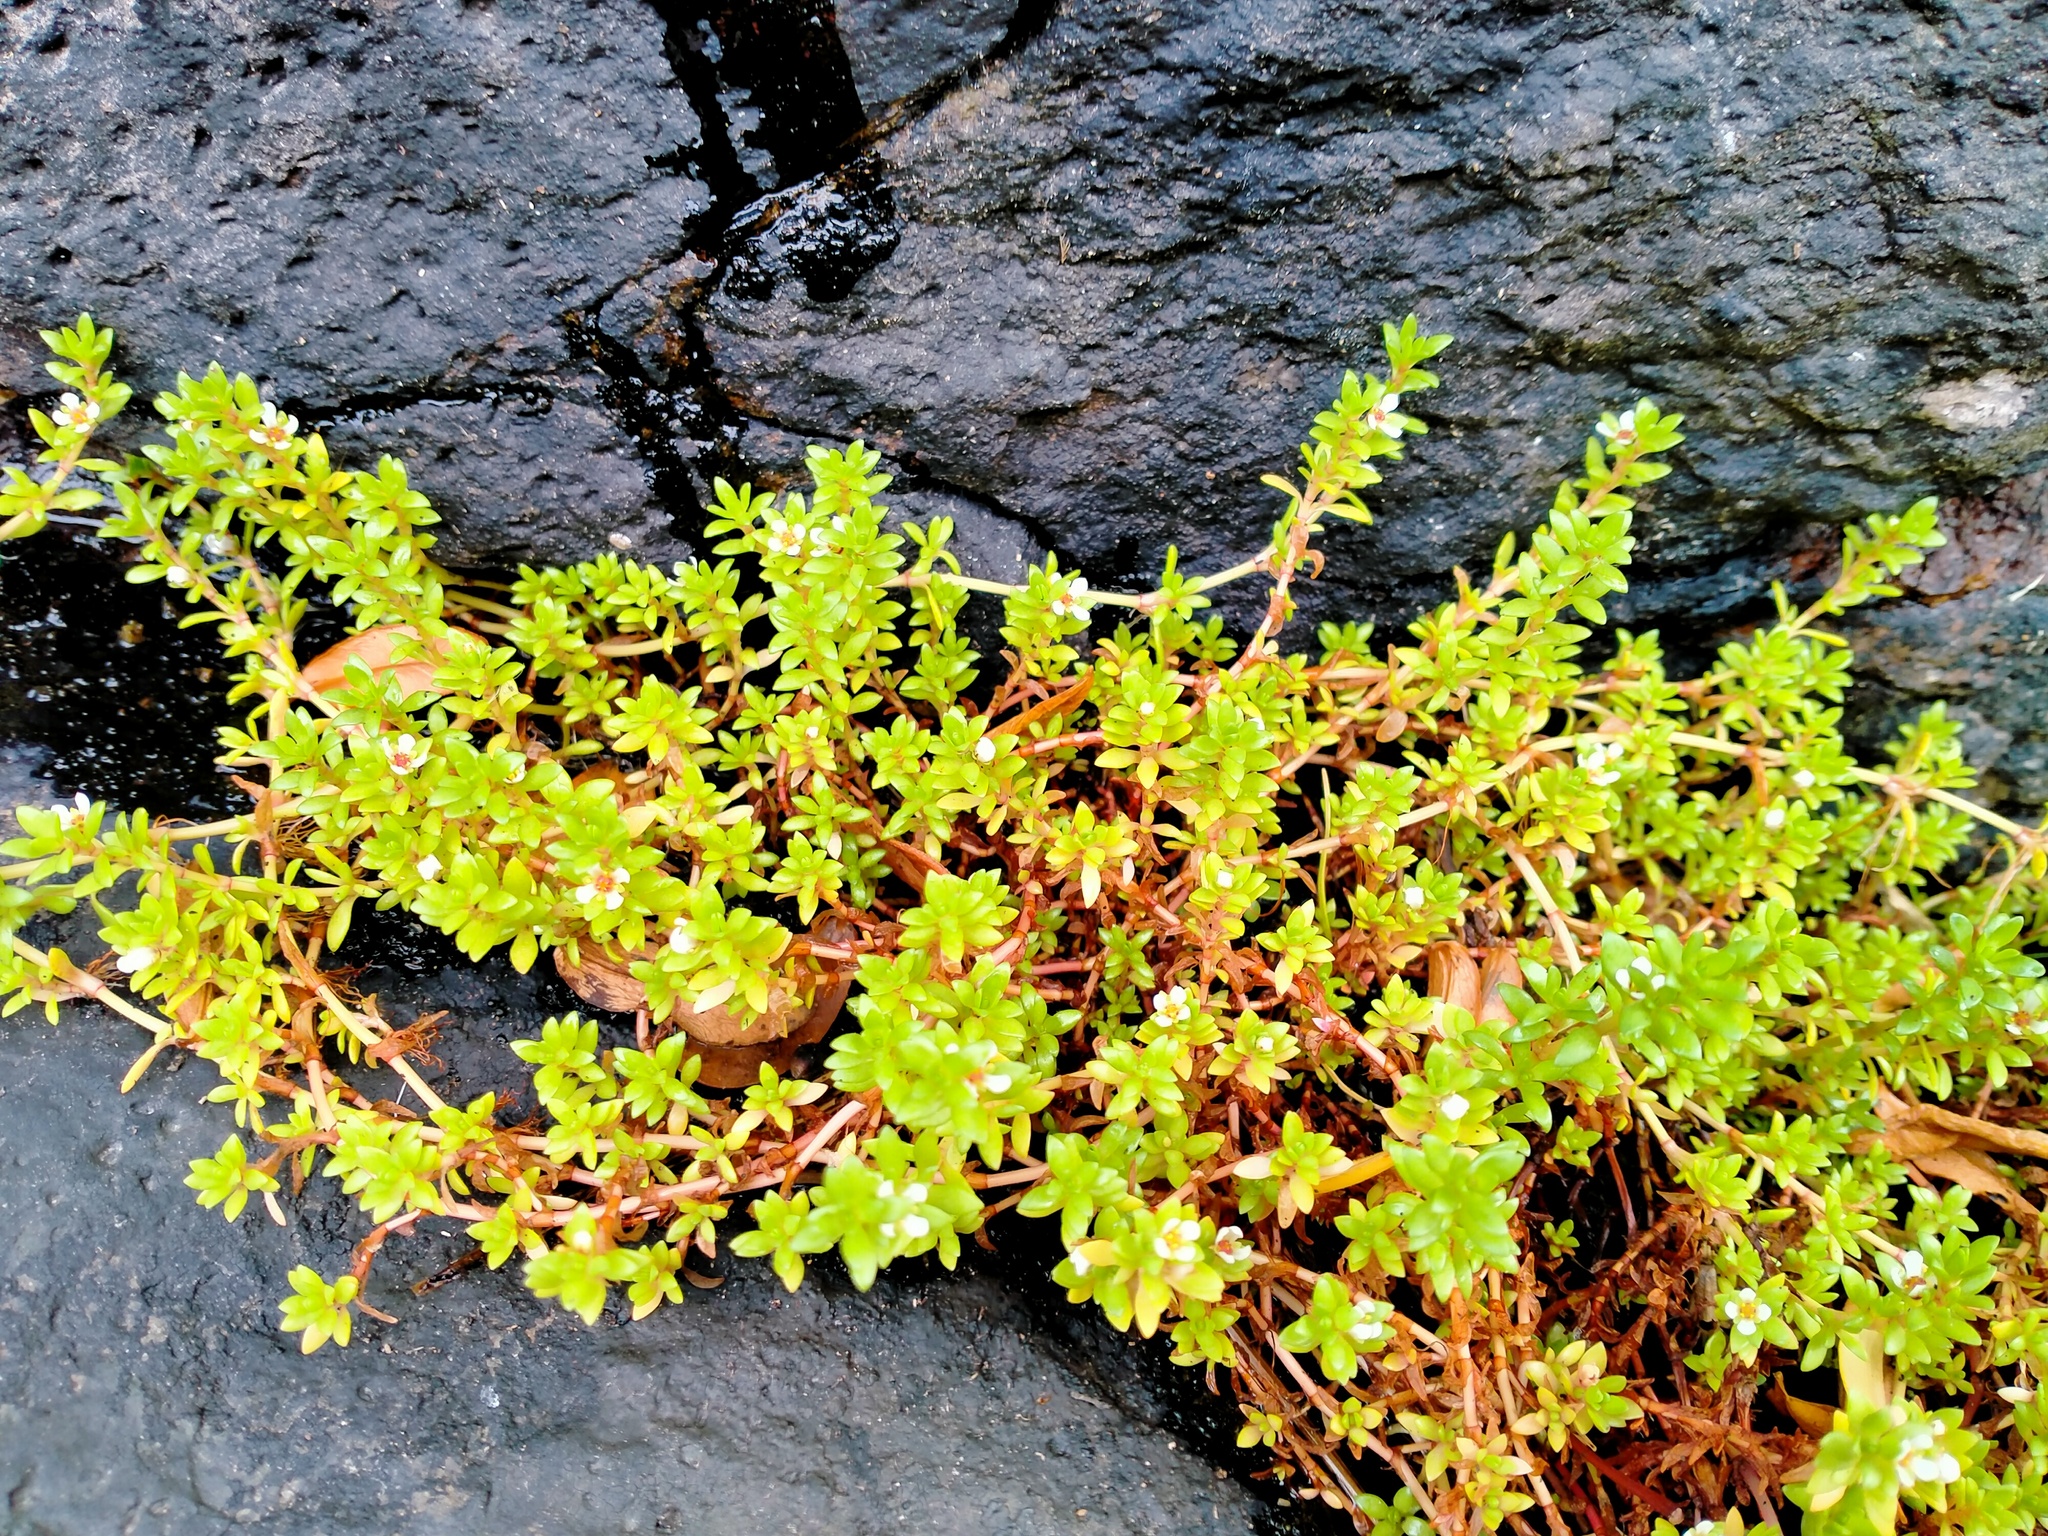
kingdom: Plantae
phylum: Tracheophyta
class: Magnoliopsida
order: Saxifragales
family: Crassulaceae
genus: Crassula
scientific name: Crassula moschata
